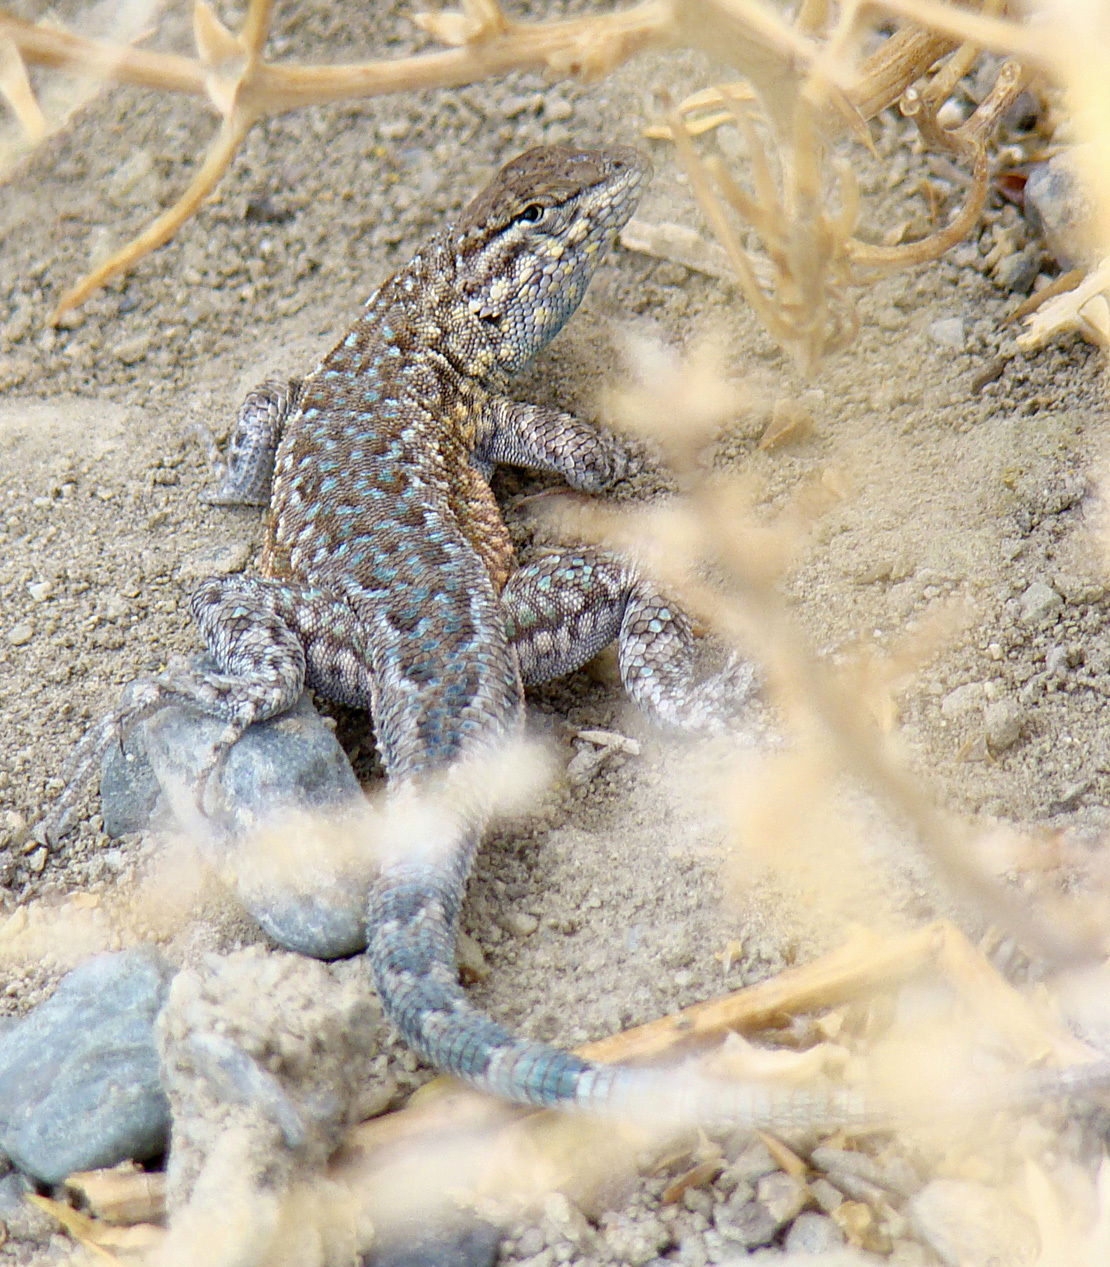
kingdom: Animalia
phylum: Chordata
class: Squamata
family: Phrynosomatidae
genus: Uta
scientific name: Uta stansburiana
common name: Side-blotched lizard
